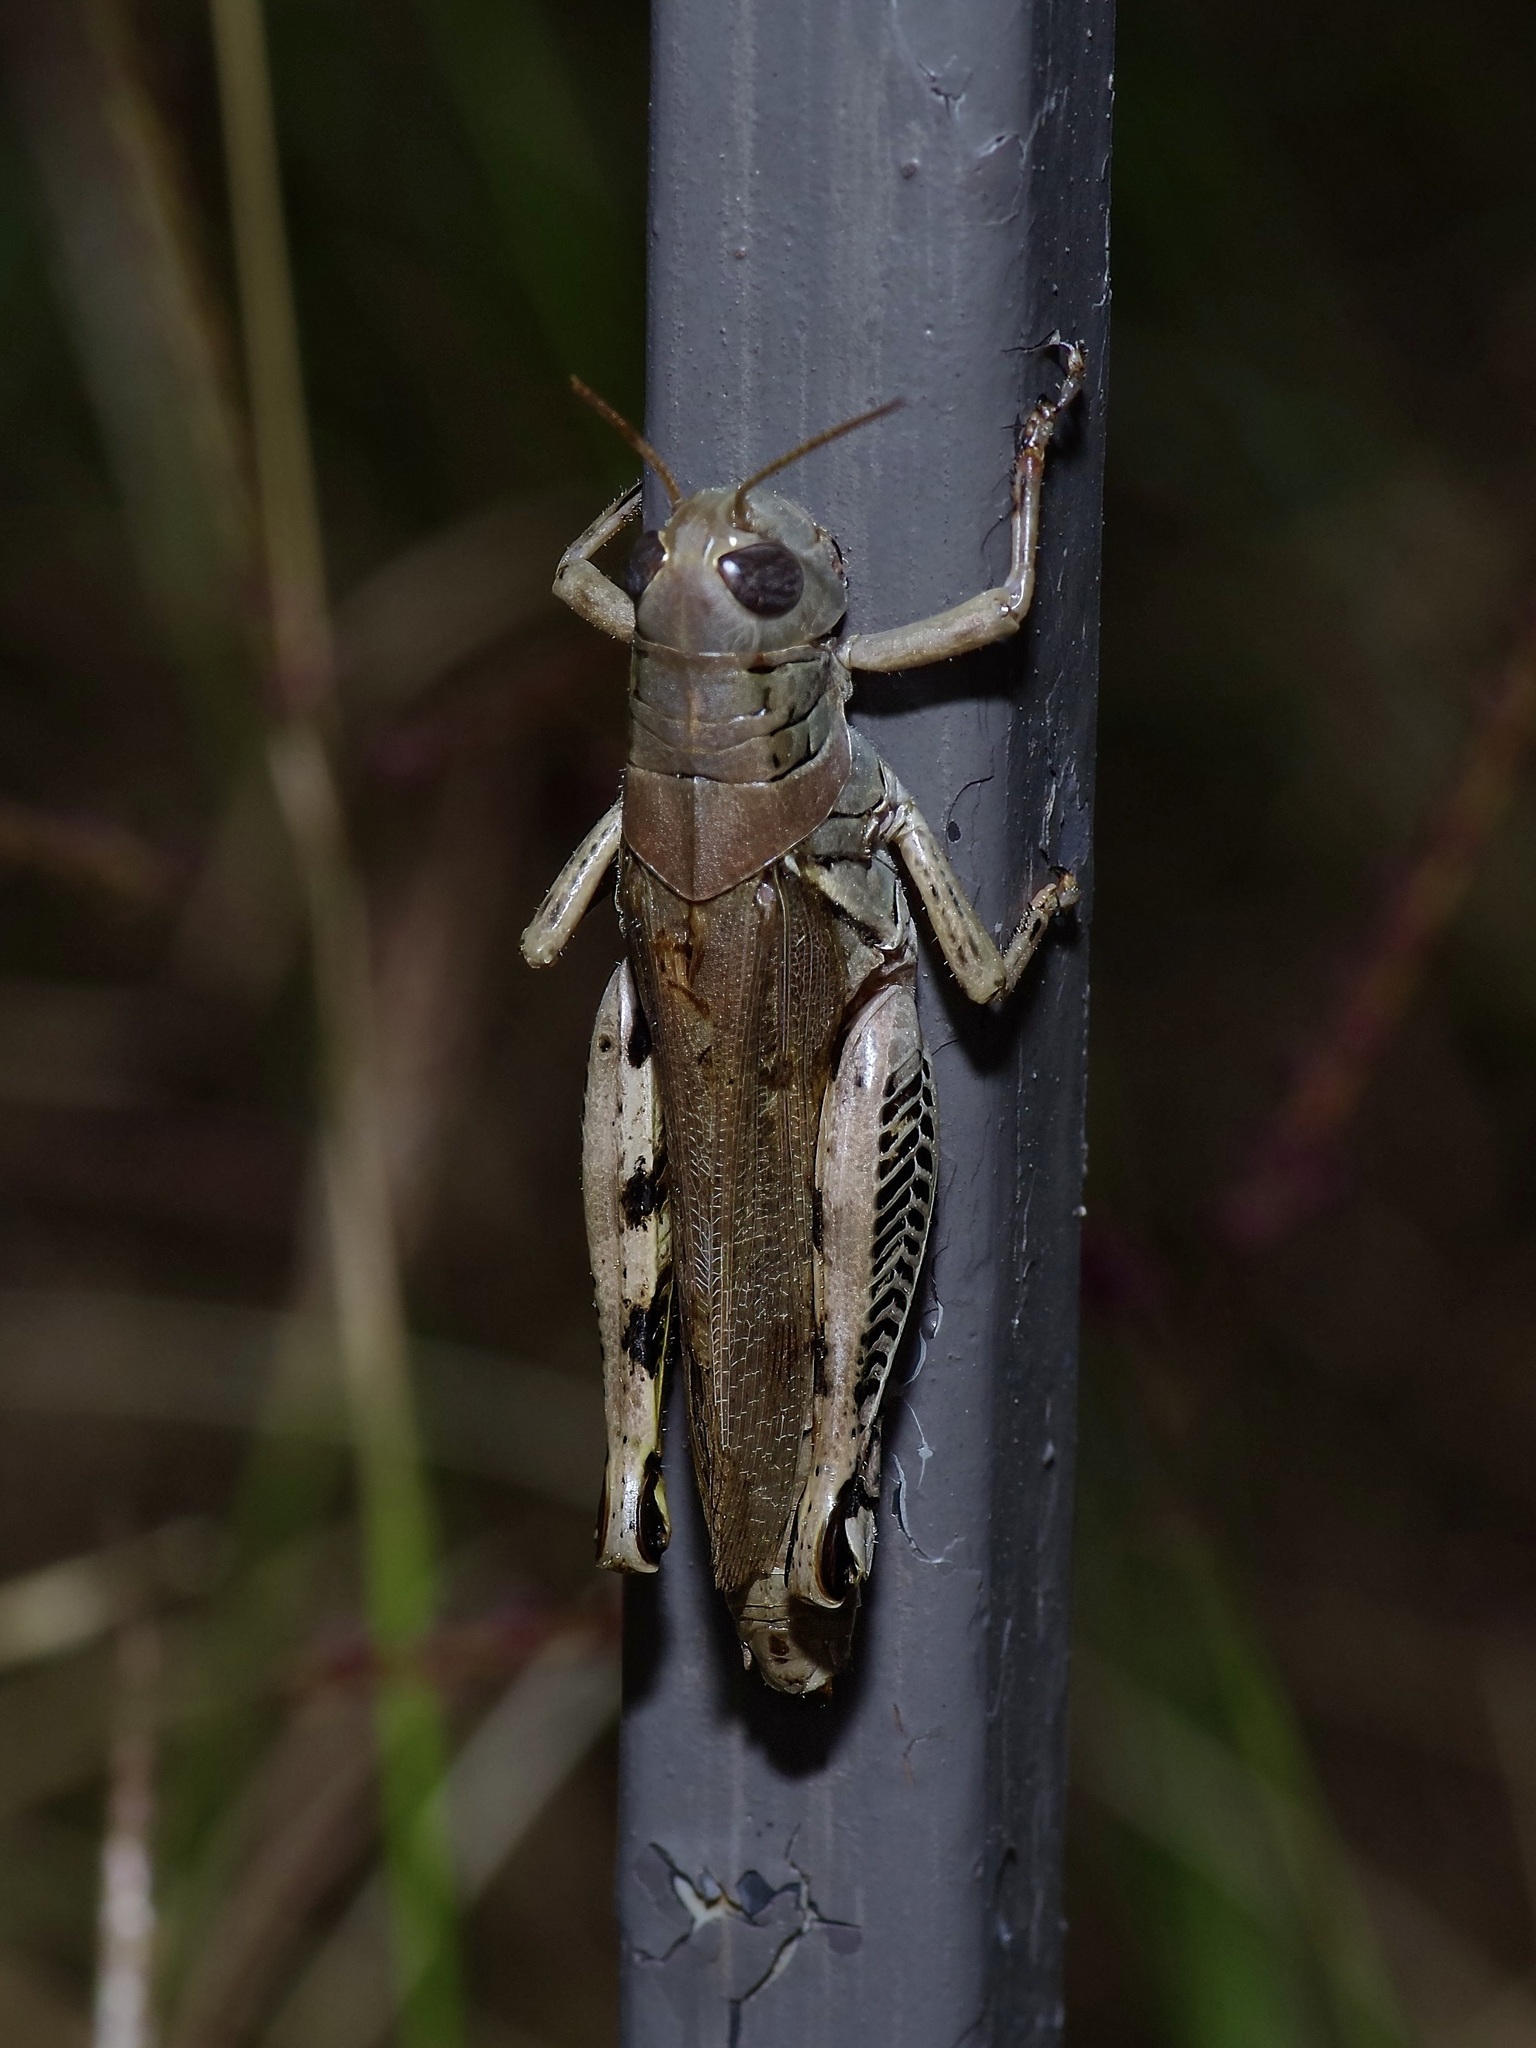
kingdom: Animalia
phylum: Arthropoda
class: Insecta
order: Orthoptera
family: Acrididae
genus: Melanoplus
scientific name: Melanoplus differentialis
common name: Differential grasshopper
